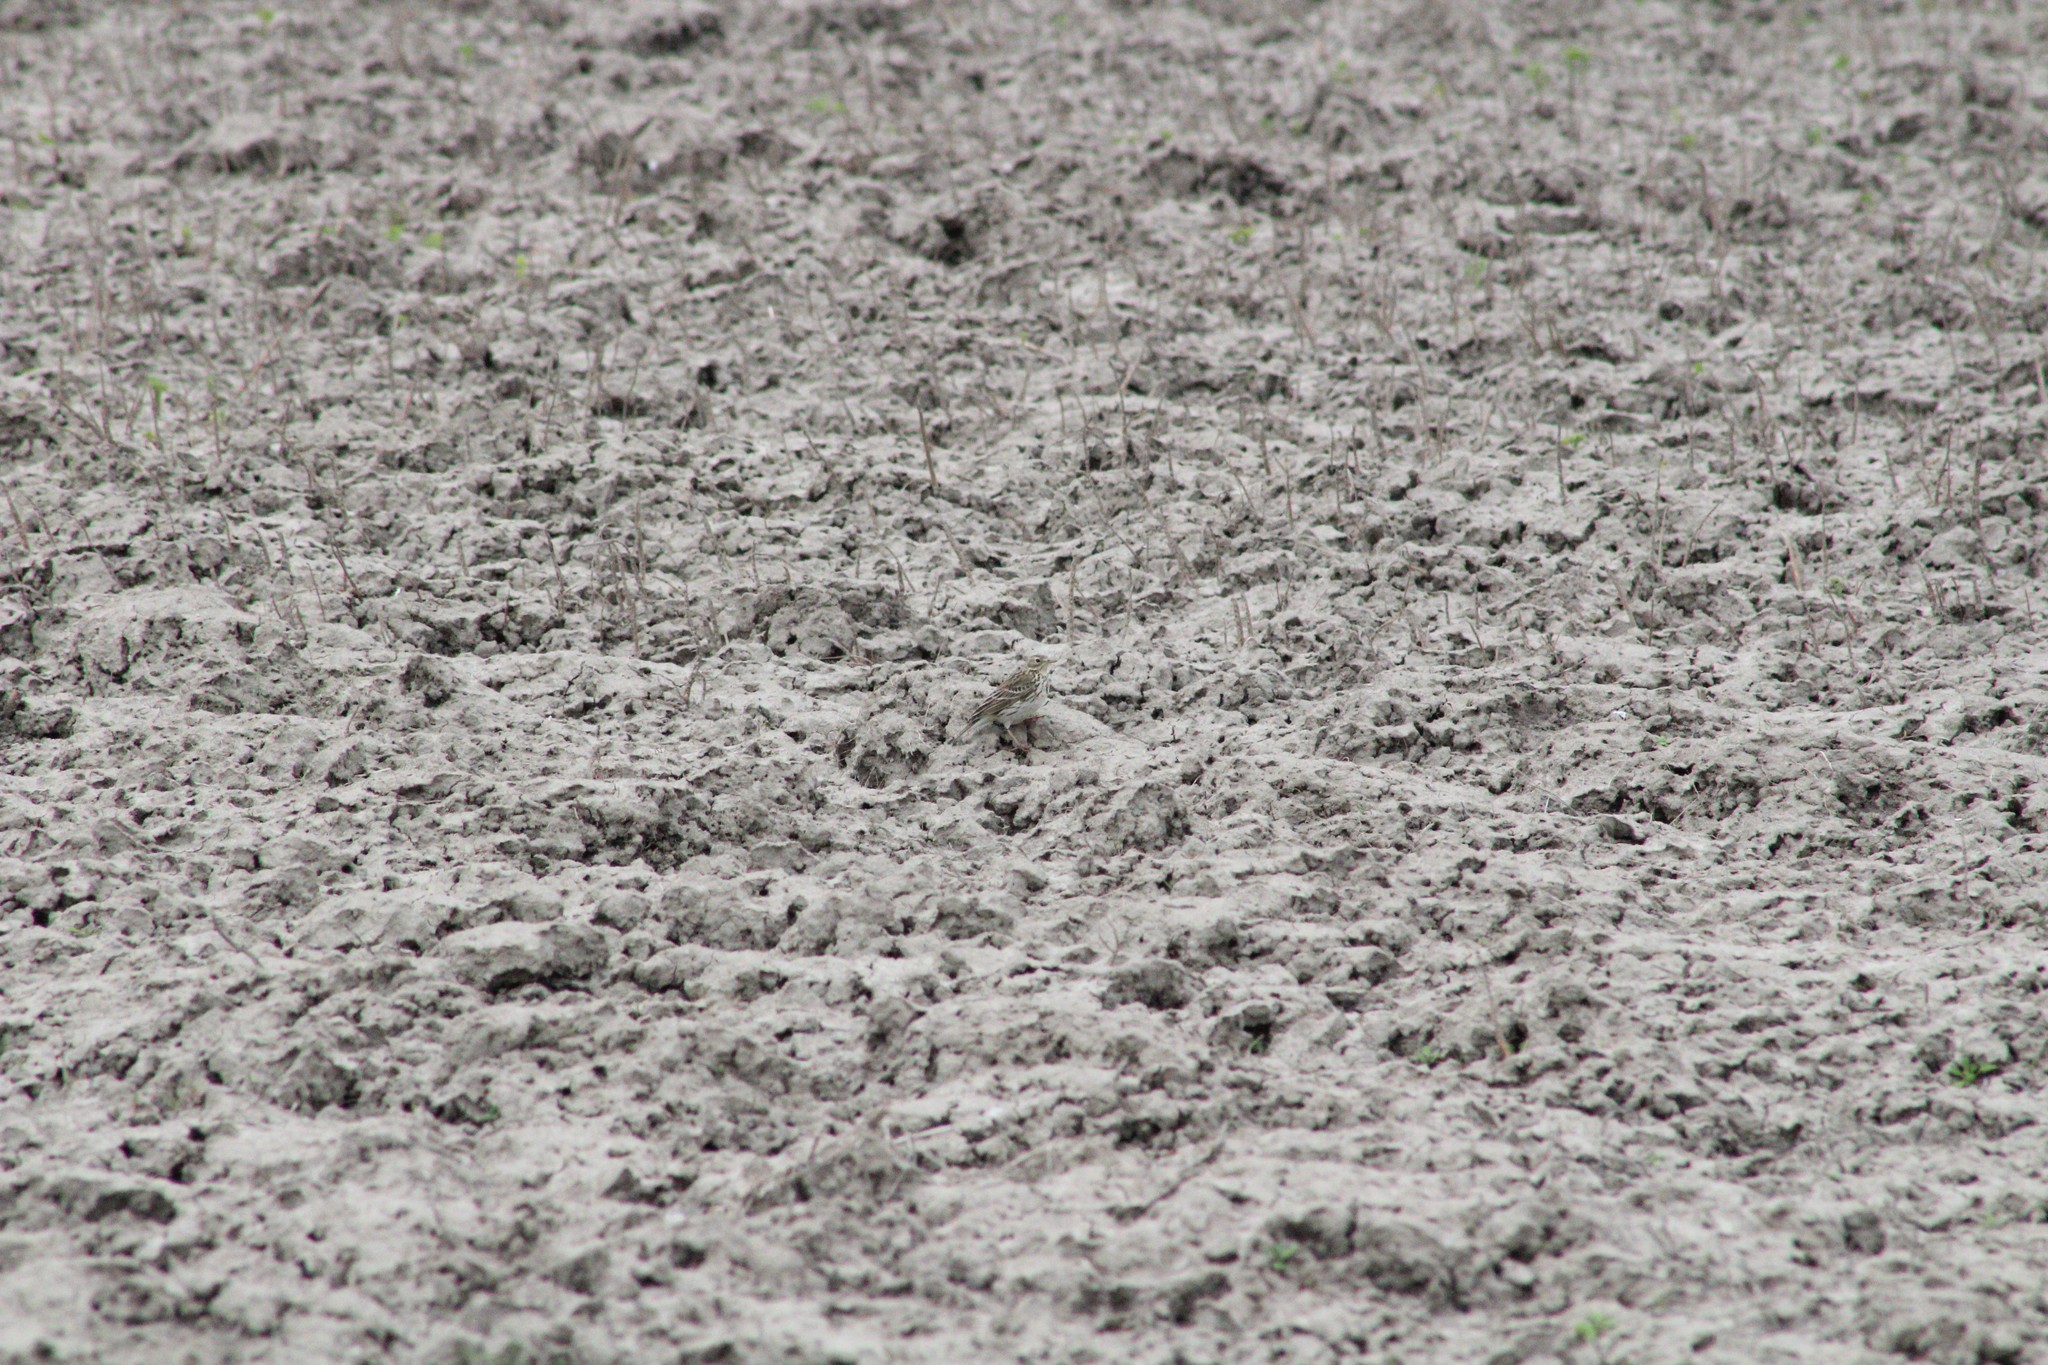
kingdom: Animalia
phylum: Chordata
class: Aves
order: Passeriformes
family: Motacillidae
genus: Anthus
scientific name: Anthus pratensis
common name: Meadow pipit
